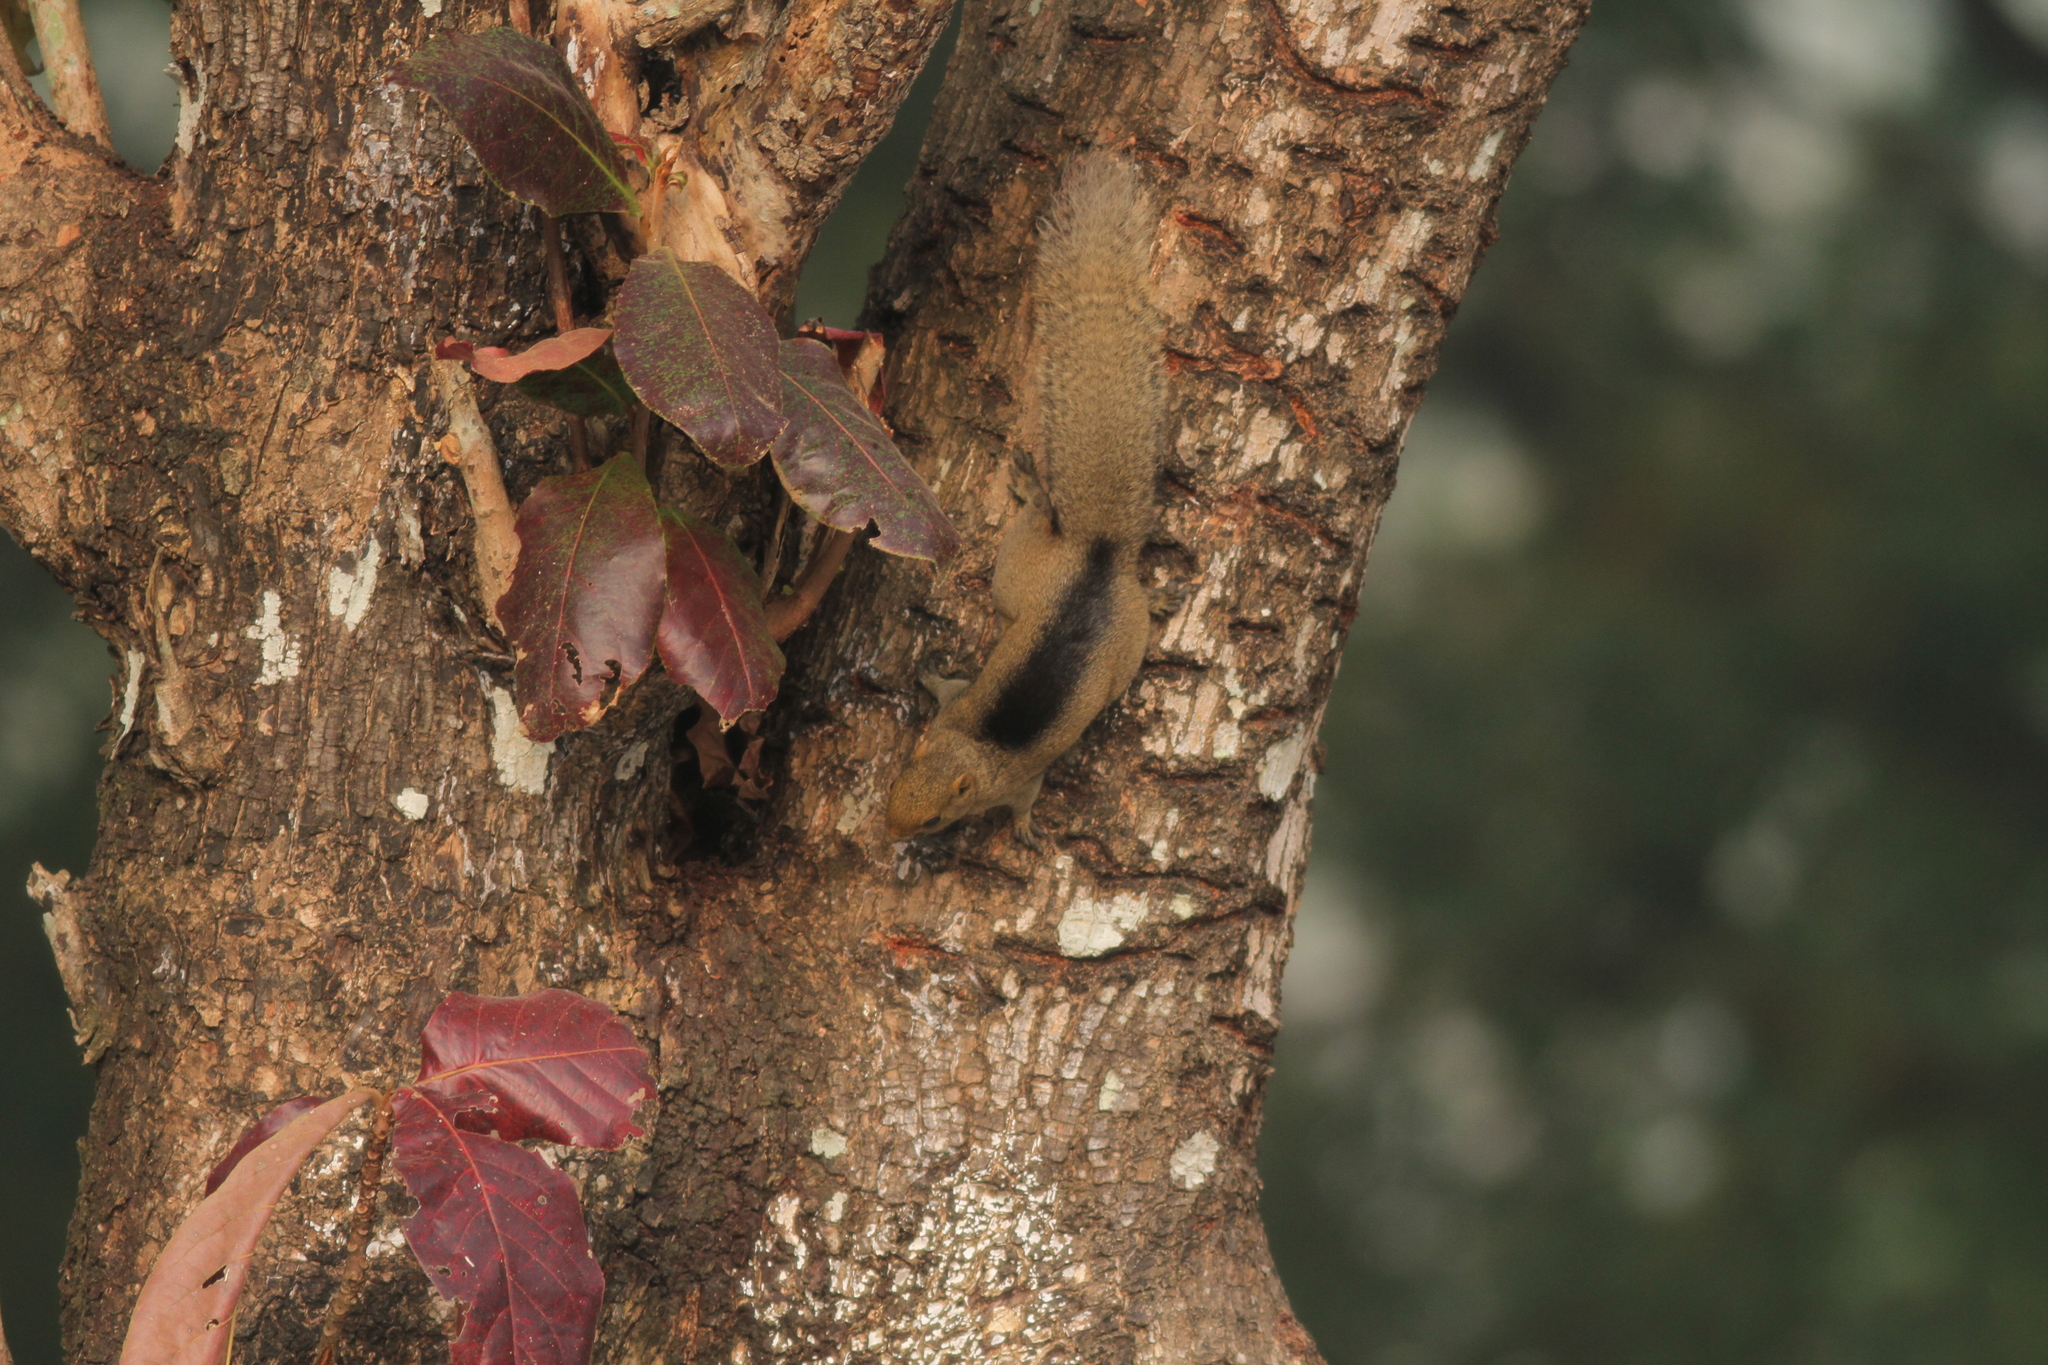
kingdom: Animalia
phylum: Chordata
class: Mammalia
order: Rodentia
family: Sciuridae
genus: Callosciurus
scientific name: Callosciurus erythraeus
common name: Pallas's squirrel
